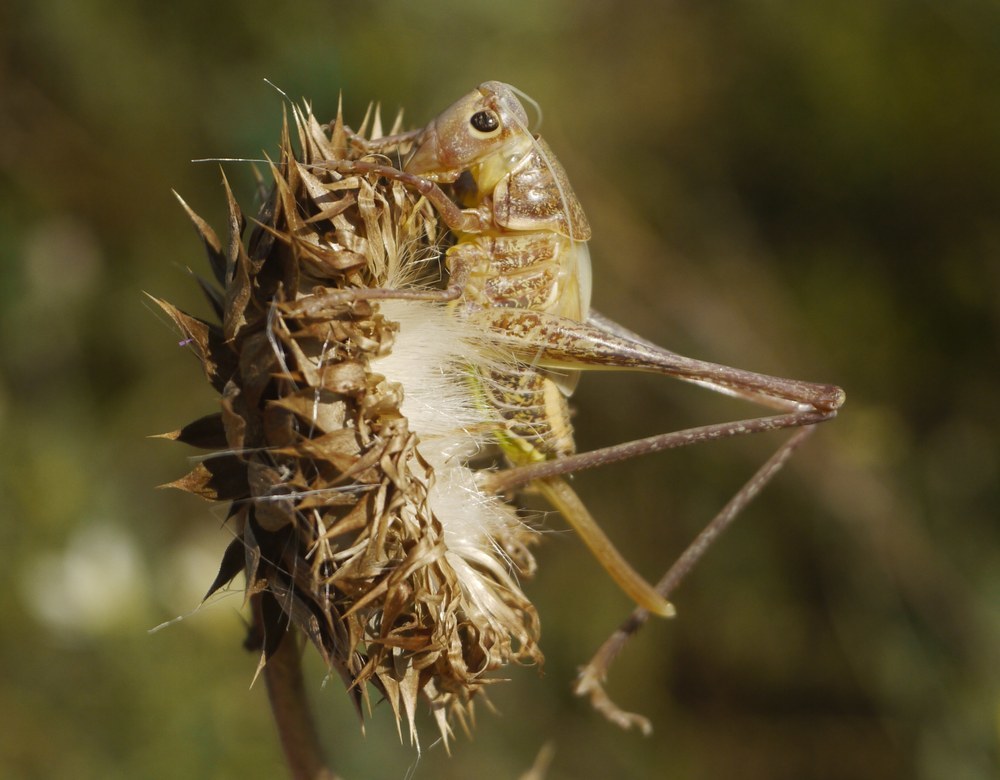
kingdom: Animalia
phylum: Arthropoda
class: Insecta
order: Orthoptera
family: Tettigoniidae
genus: Decticus
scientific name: Decticus albifrons
